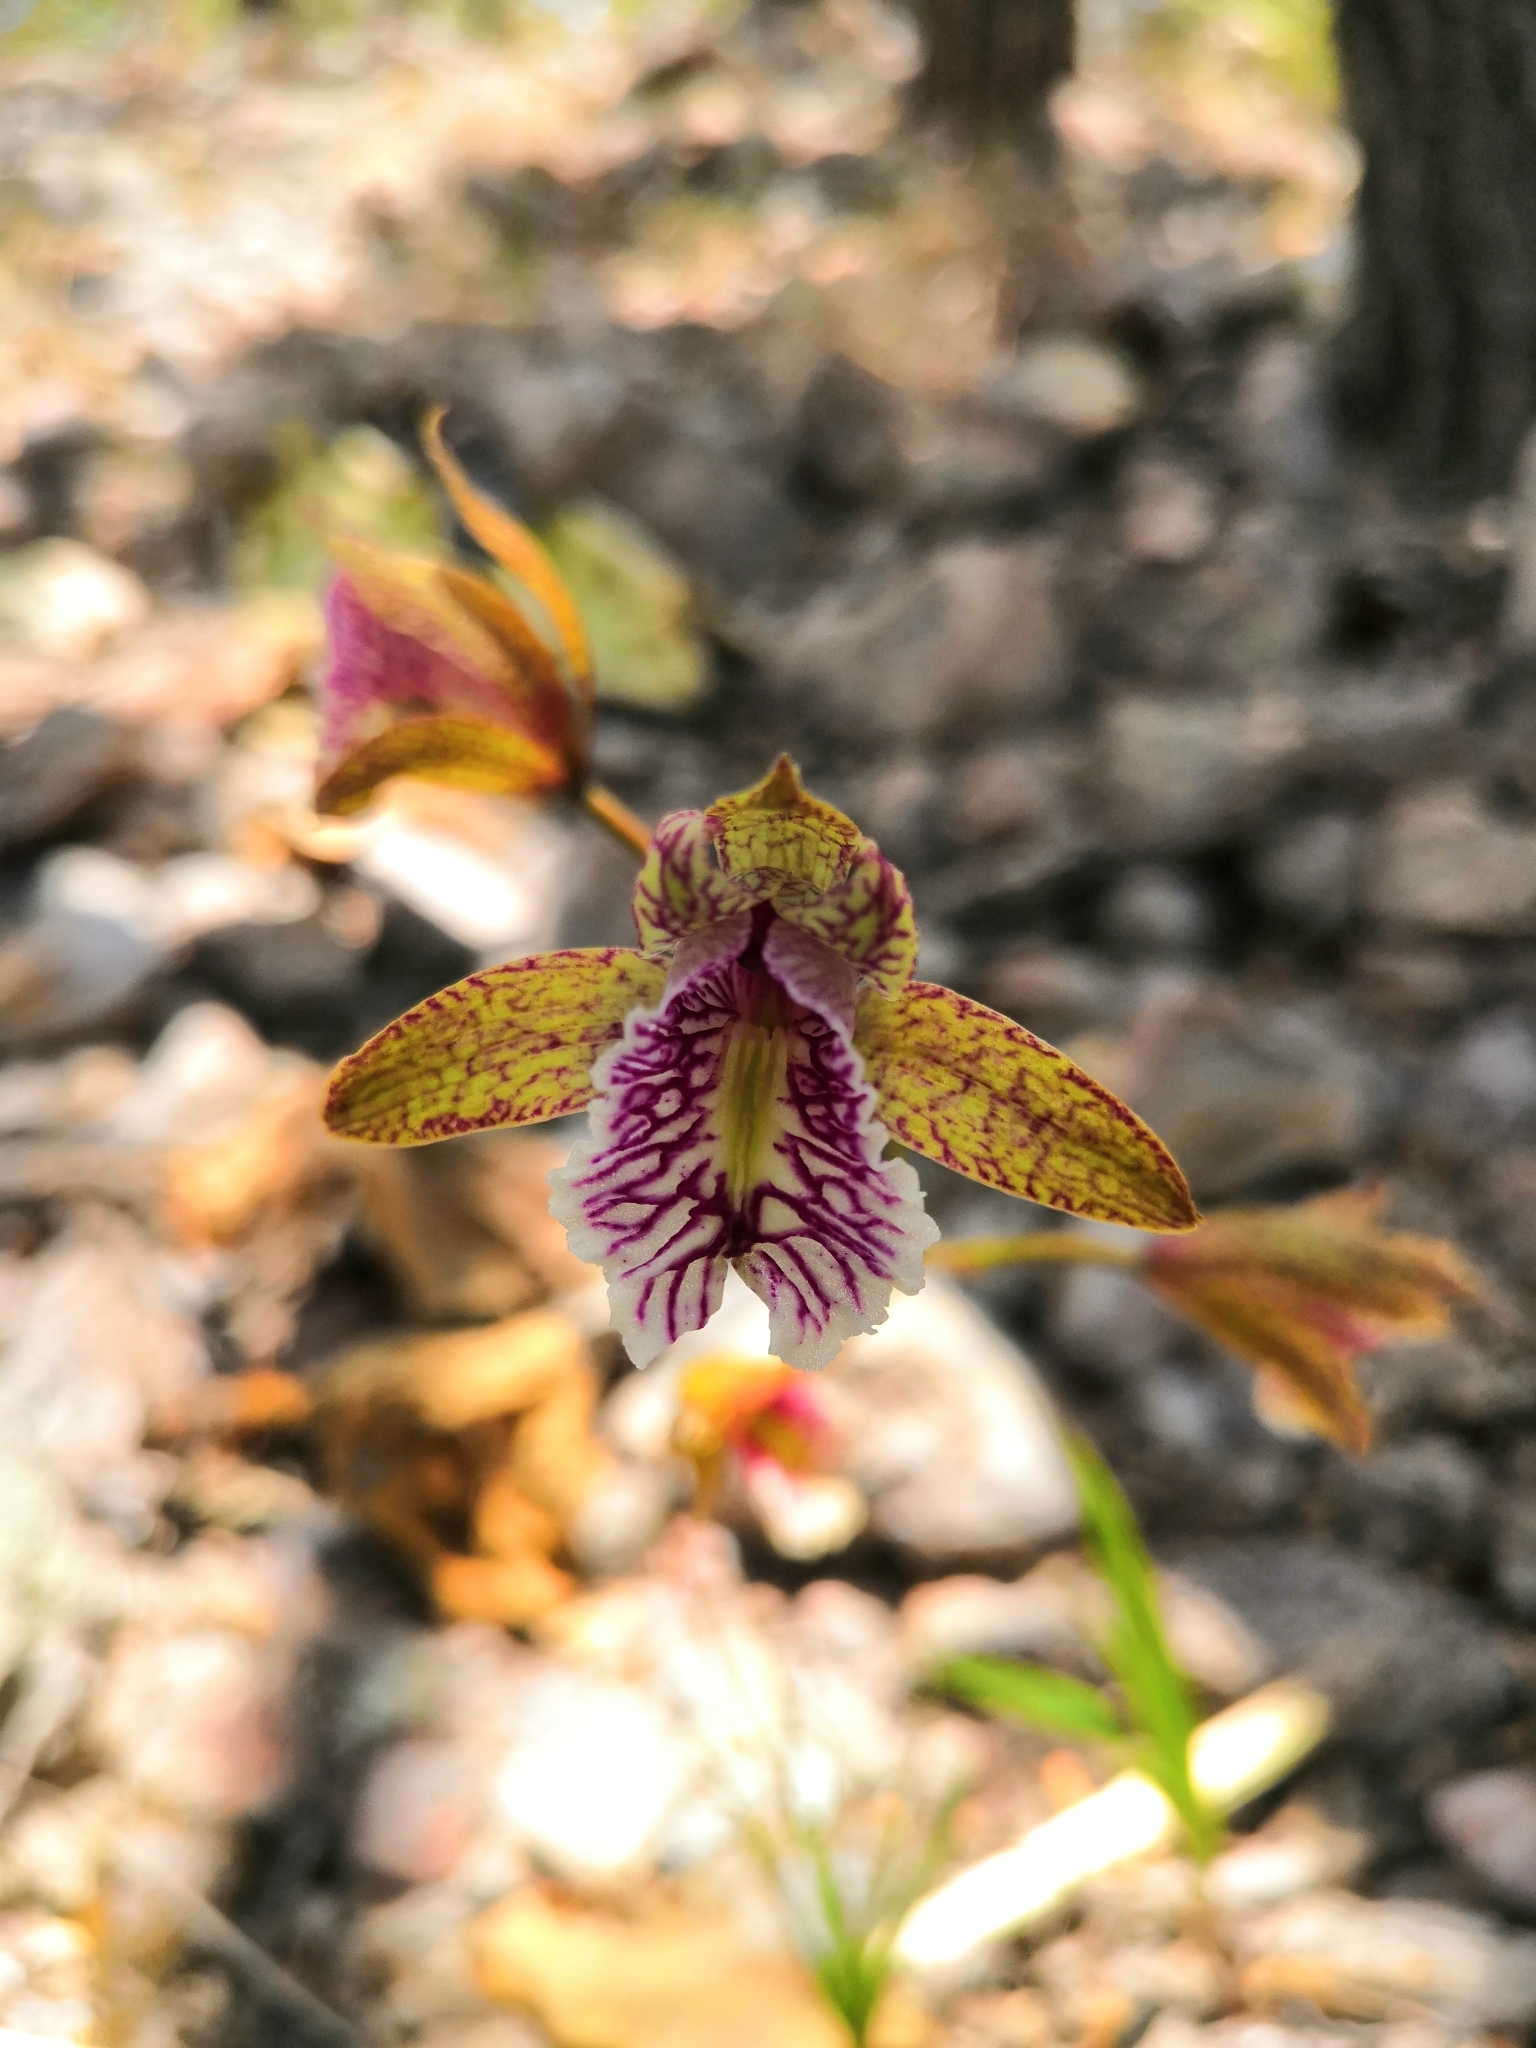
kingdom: Plantae
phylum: Tracheophyta
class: Liliopsida
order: Asparagales
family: Orchidaceae
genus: Bletia
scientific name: Bletia ensifolia
